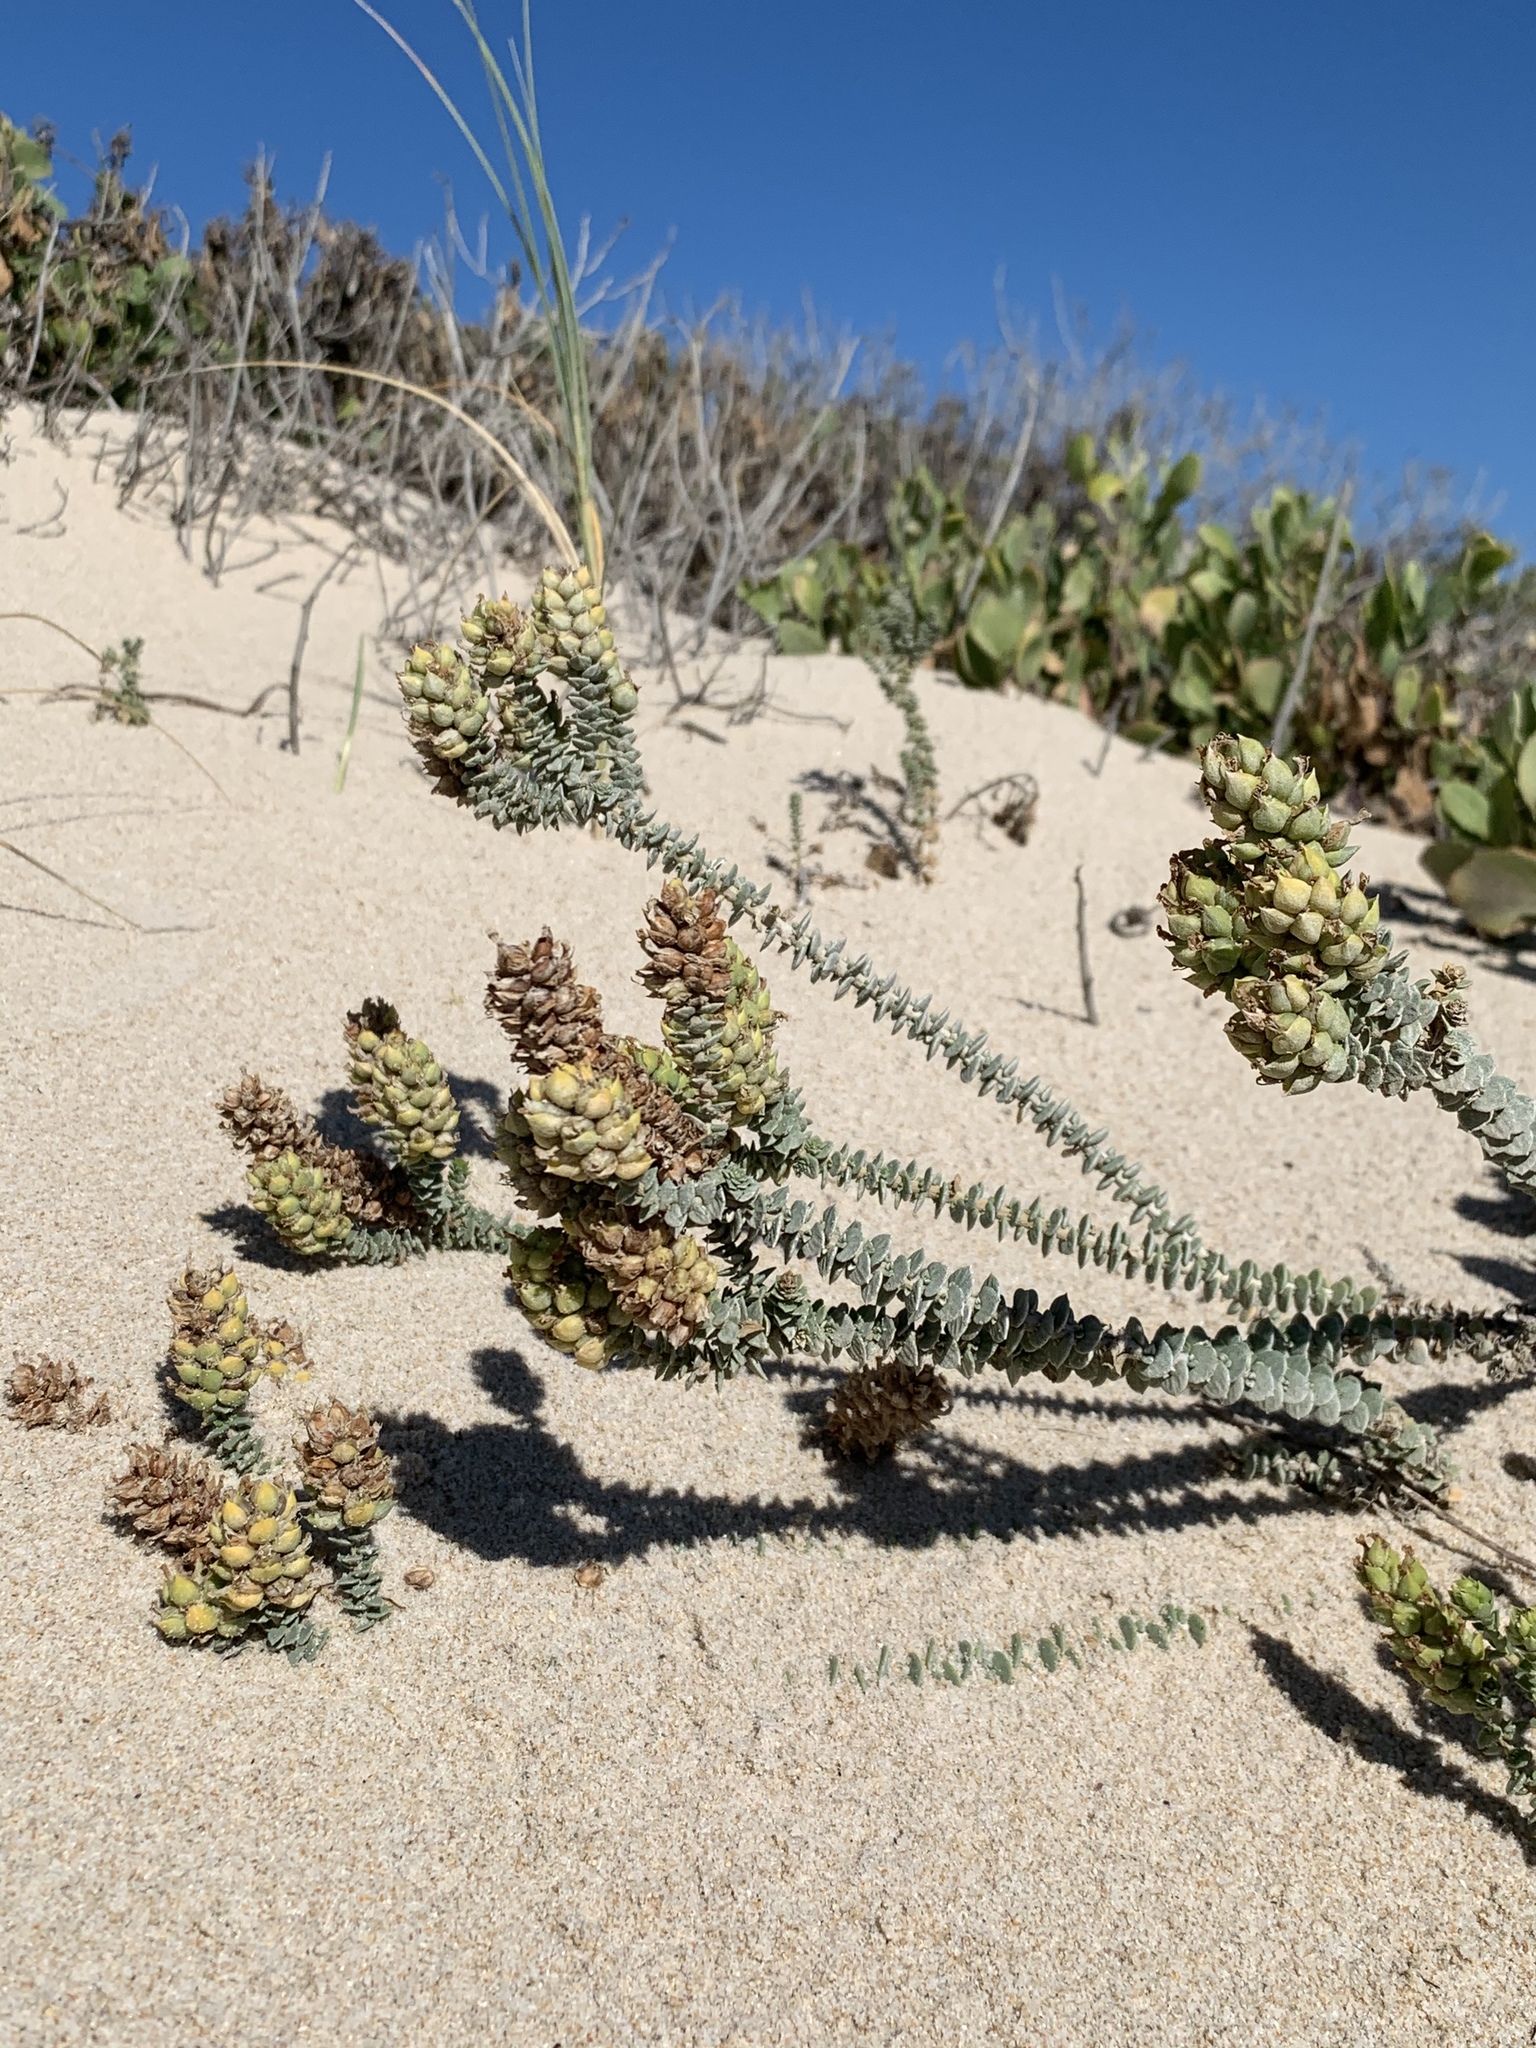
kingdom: Plantae
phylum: Tracheophyta
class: Magnoliopsida
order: Lamiales
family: Scrophulariaceae
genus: Hebenstretia
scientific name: Hebenstretia cordata
